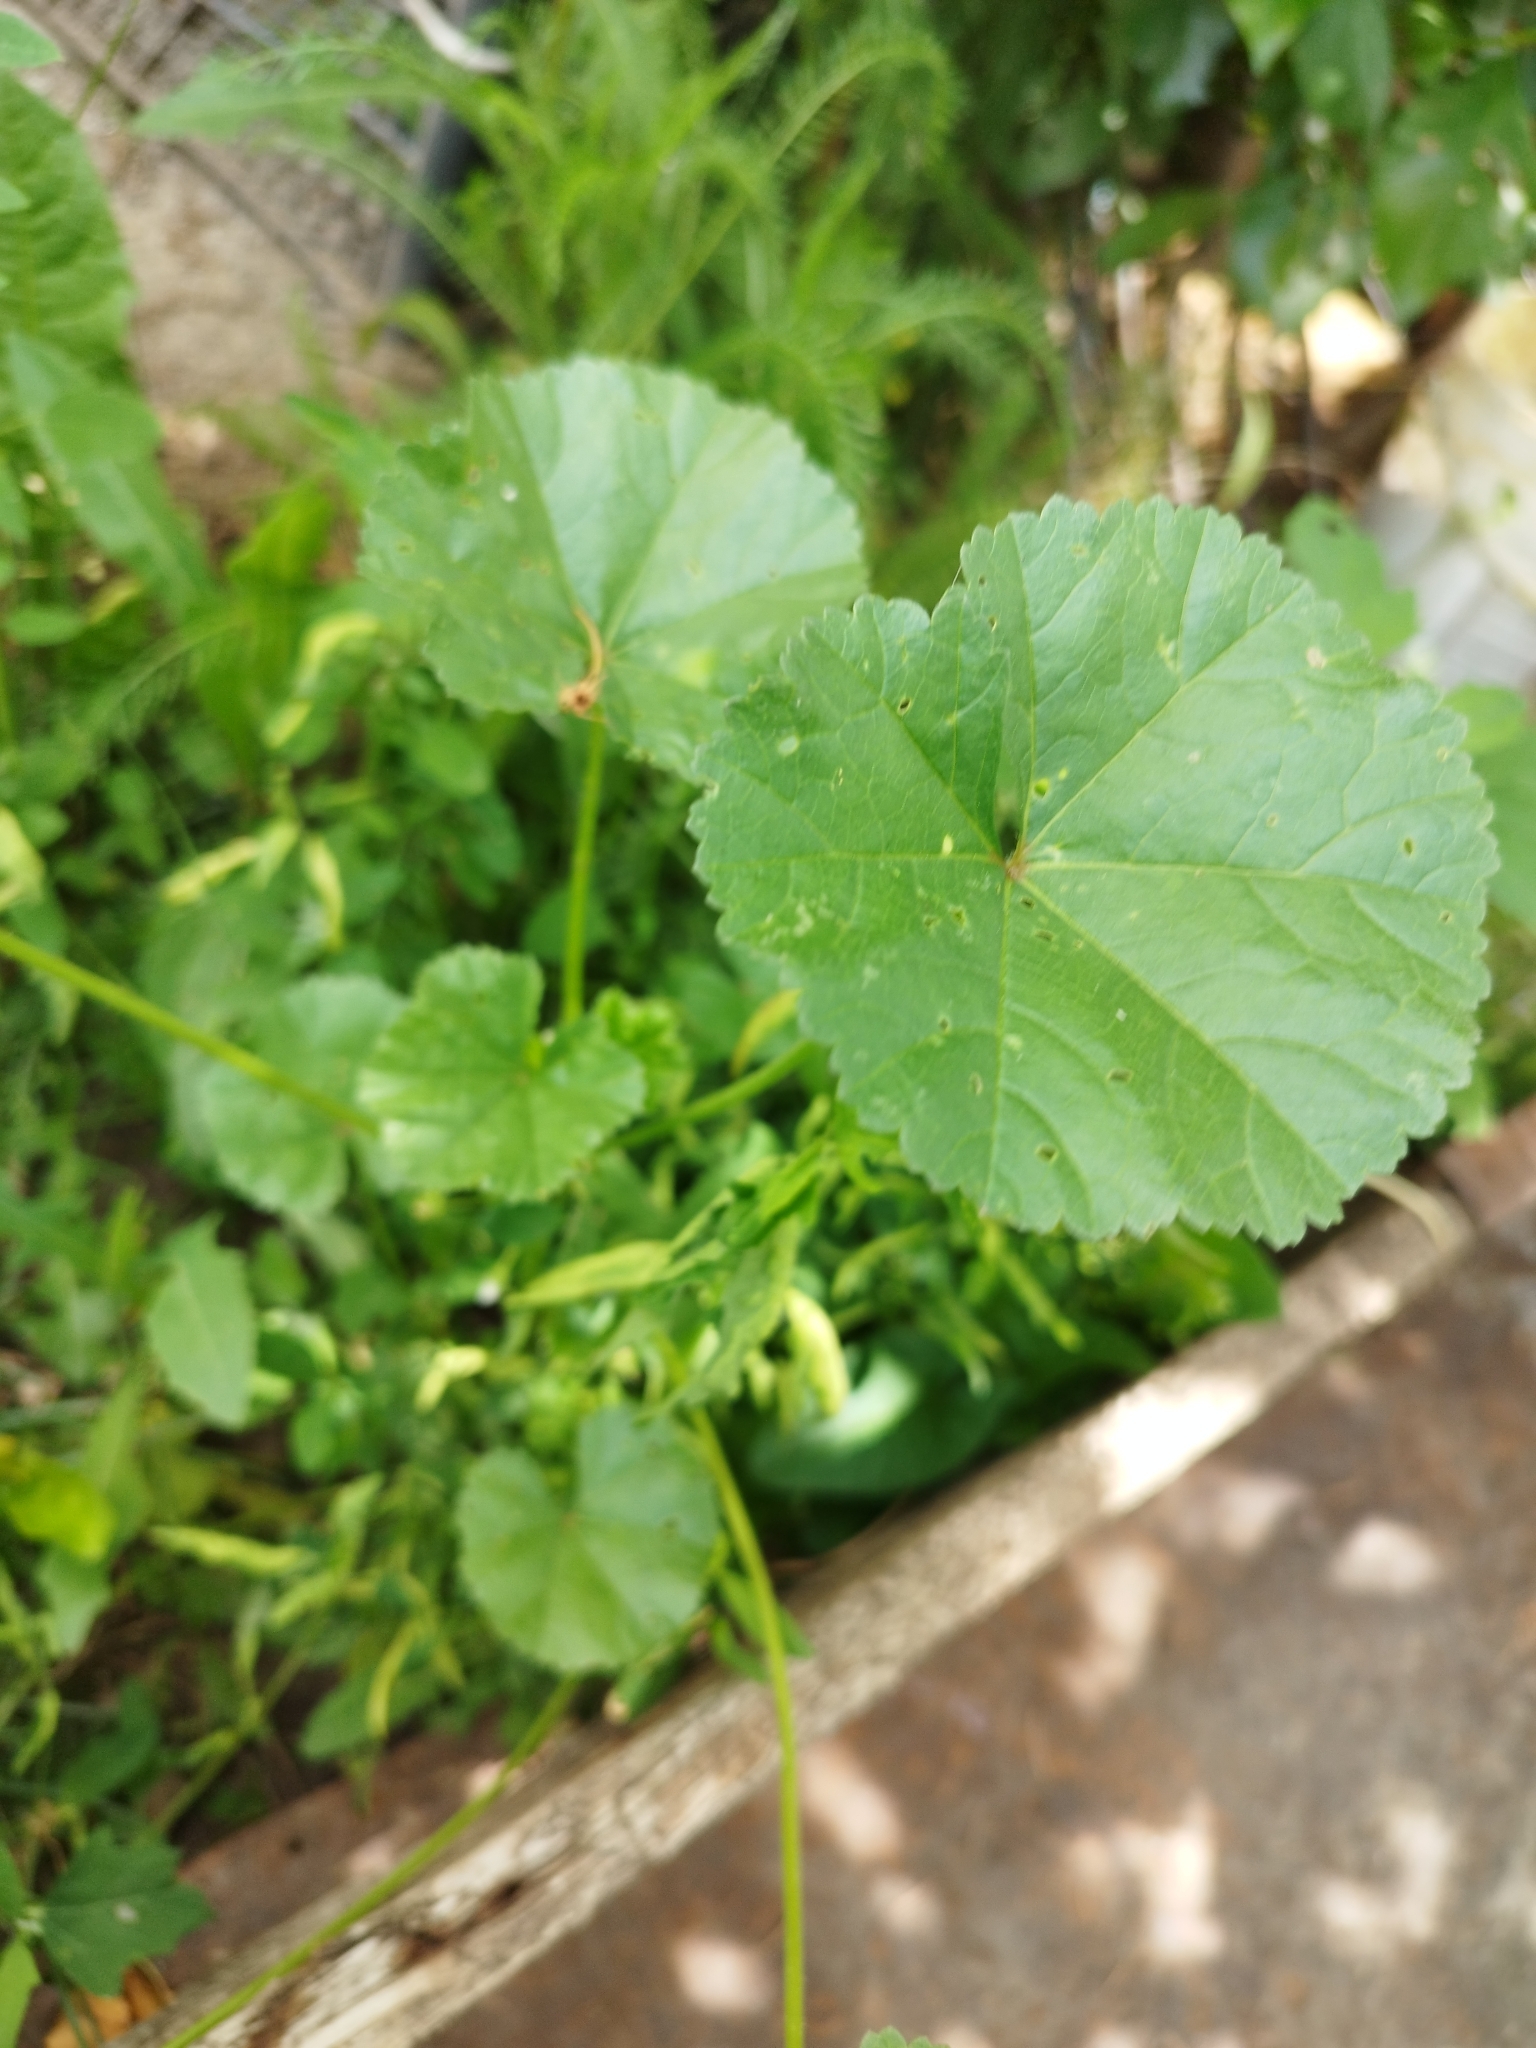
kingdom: Plantae
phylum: Tracheophyta
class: Magnoliopsida
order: Malvales
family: Malvaceae
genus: Malva
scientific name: Malva pusilla
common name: Small mallow
